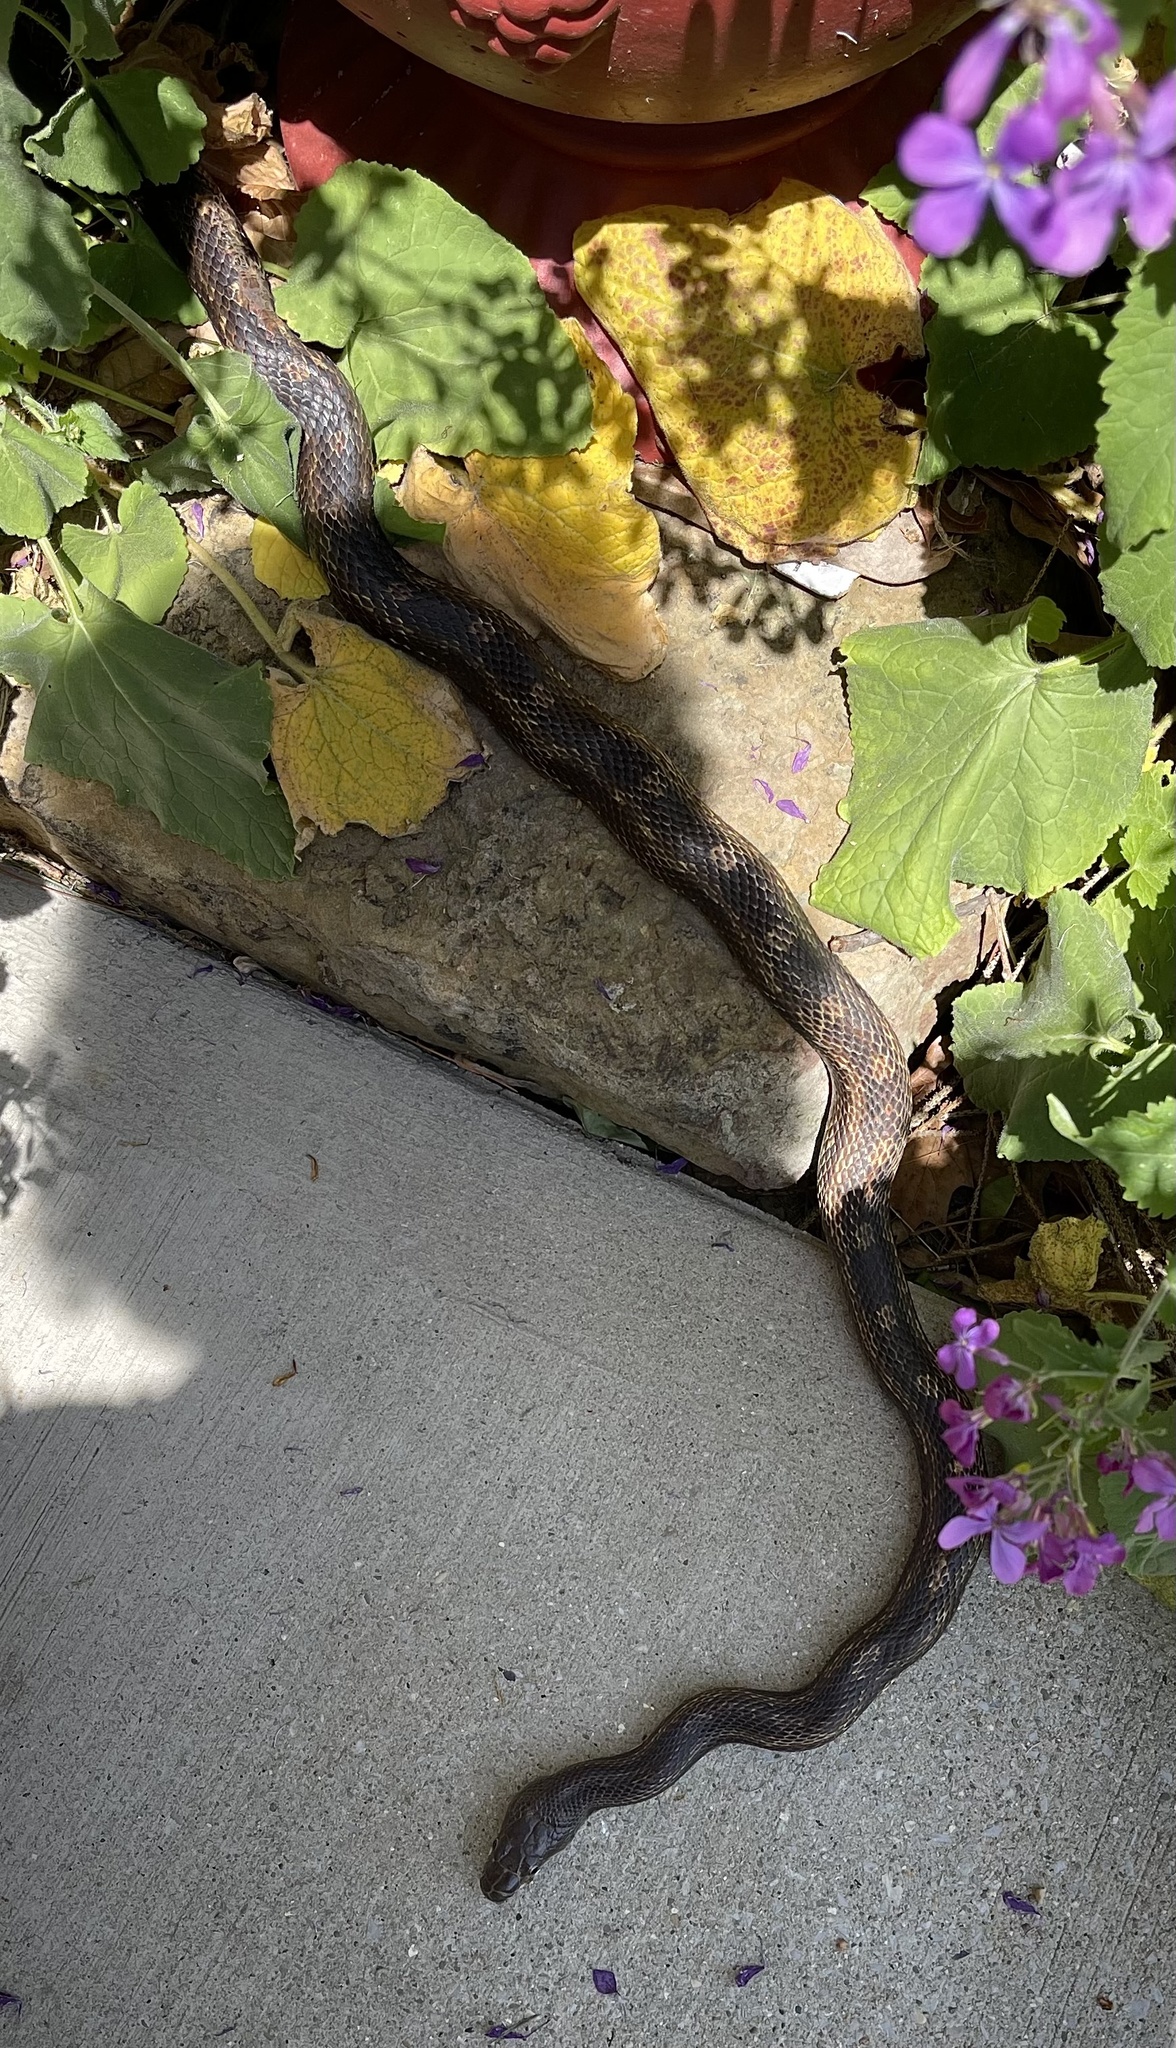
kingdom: Animalia
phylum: Chordata
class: Squamata
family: Colubridae
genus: Pantherophis
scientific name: Pantherophis spiloides
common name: Gray rat snake
